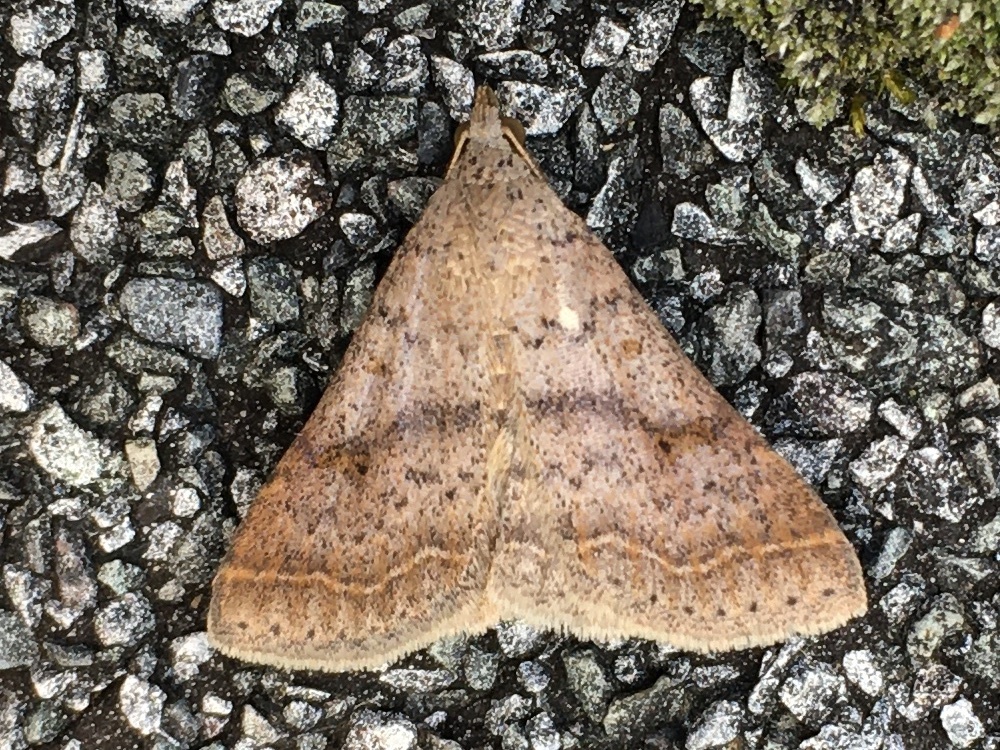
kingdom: Animalia
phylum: Arthropoda
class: Insecta
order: Lepidoptera
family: Erebidae
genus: Bleptina
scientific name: Bleptina caradrinalis
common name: Bent-winged owlet
